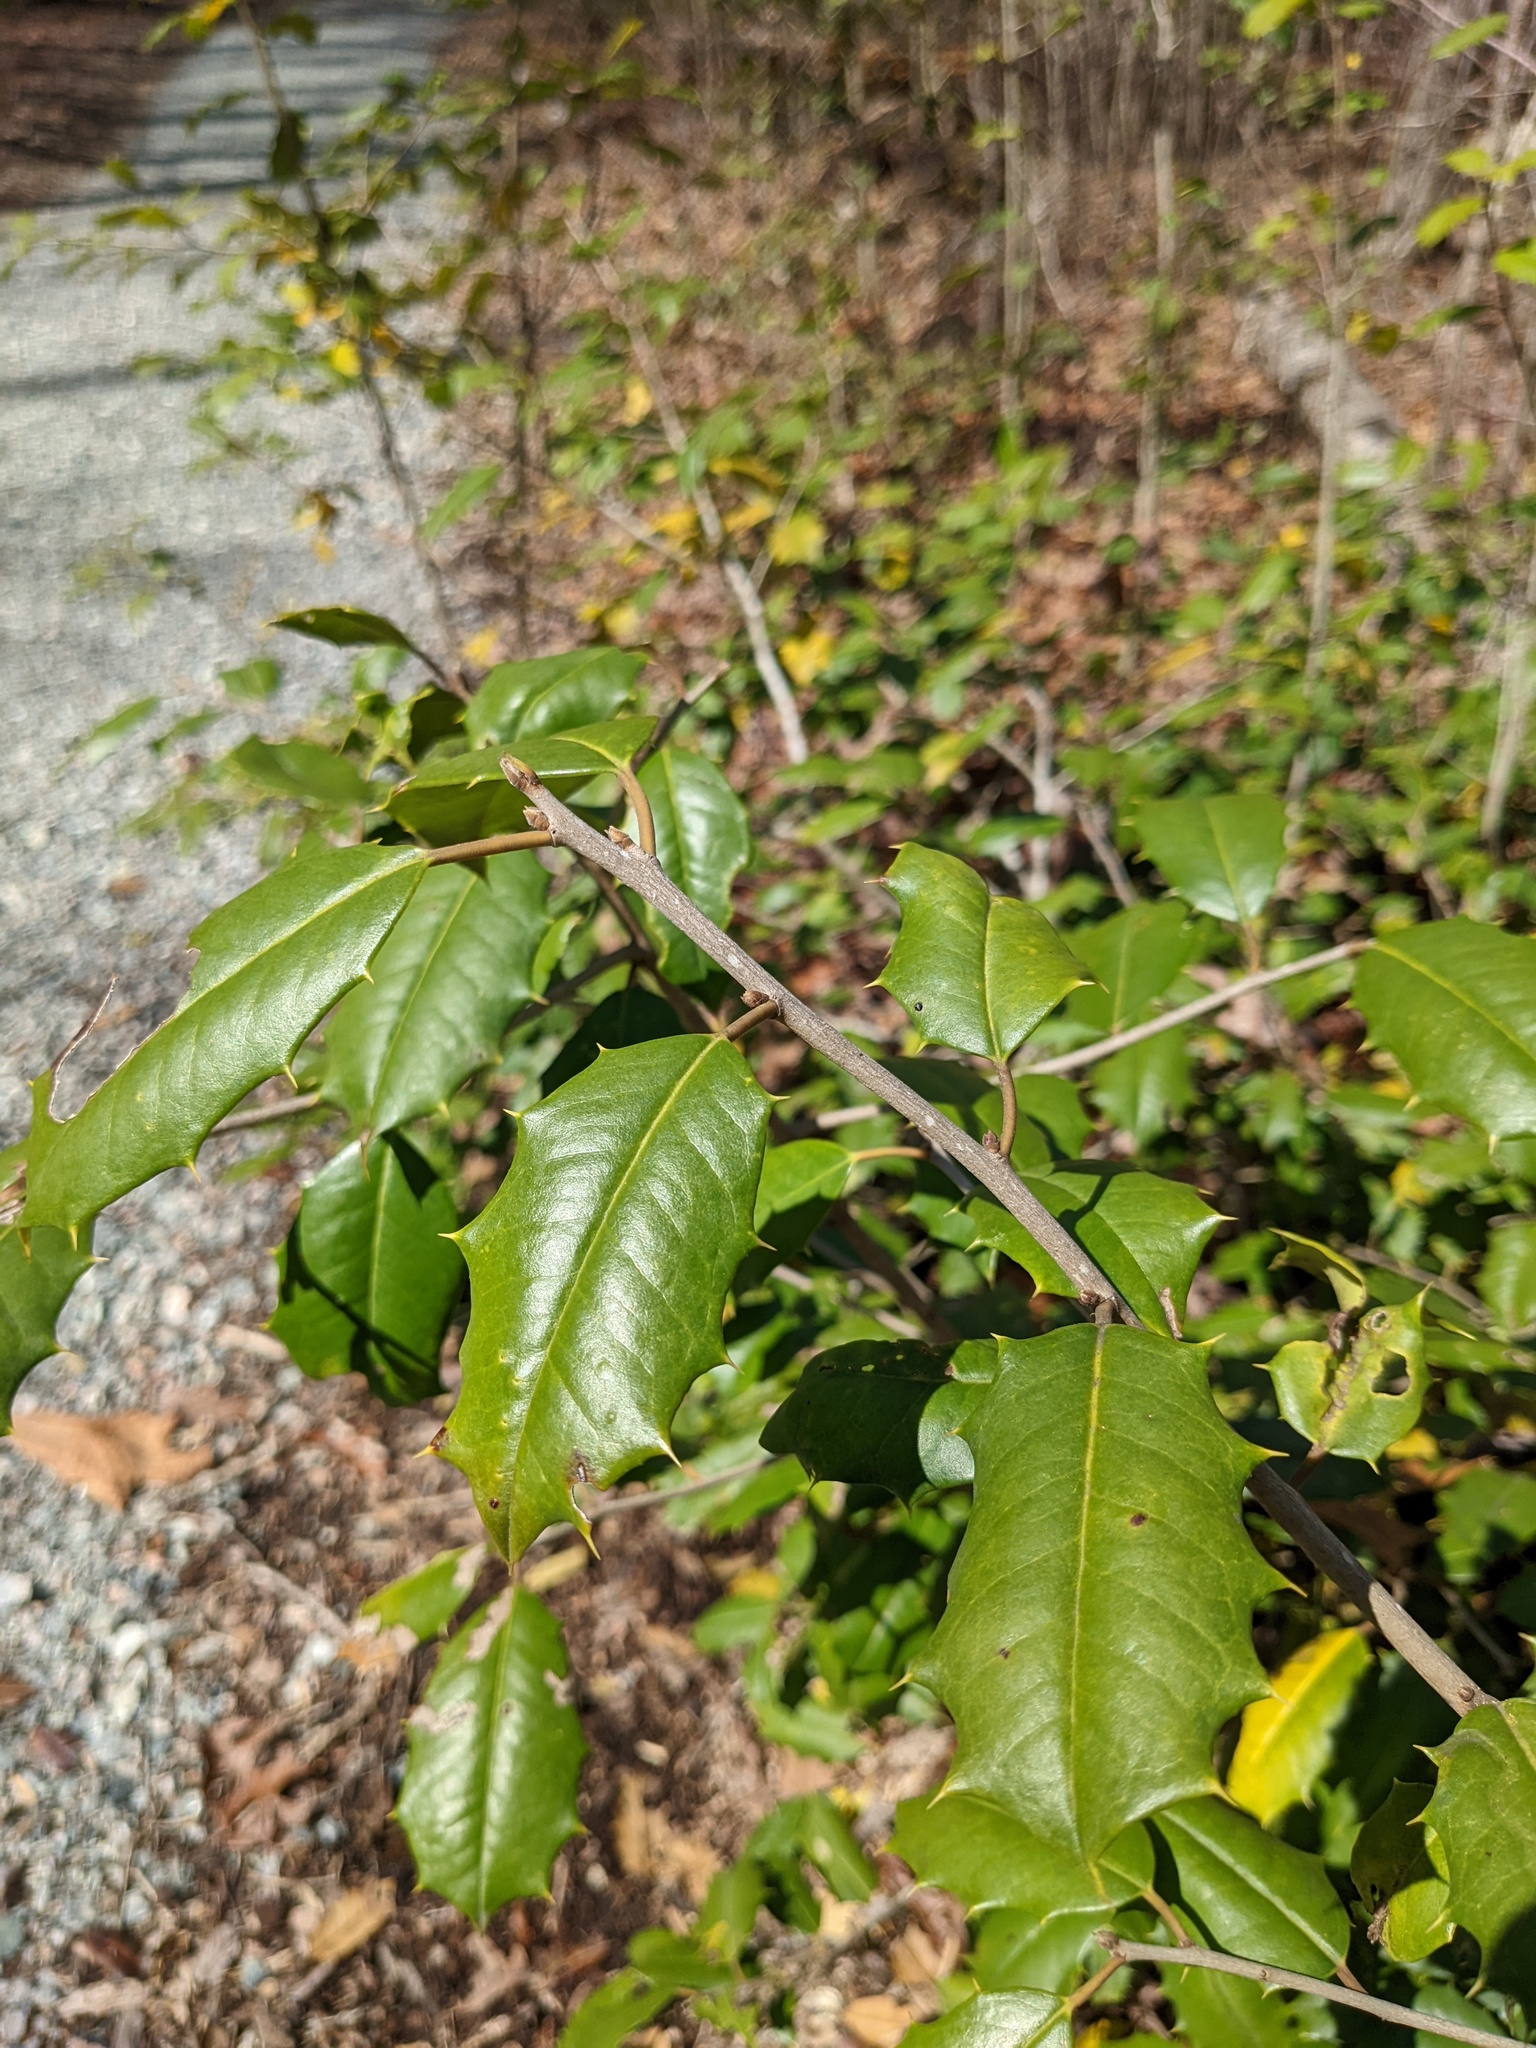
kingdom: Plantae
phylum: Tracheophyta
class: Magnoliopsida
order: Aquifoliales
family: Aquifoliaceae
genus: Ilex
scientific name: Ilex opaca
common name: American holly
